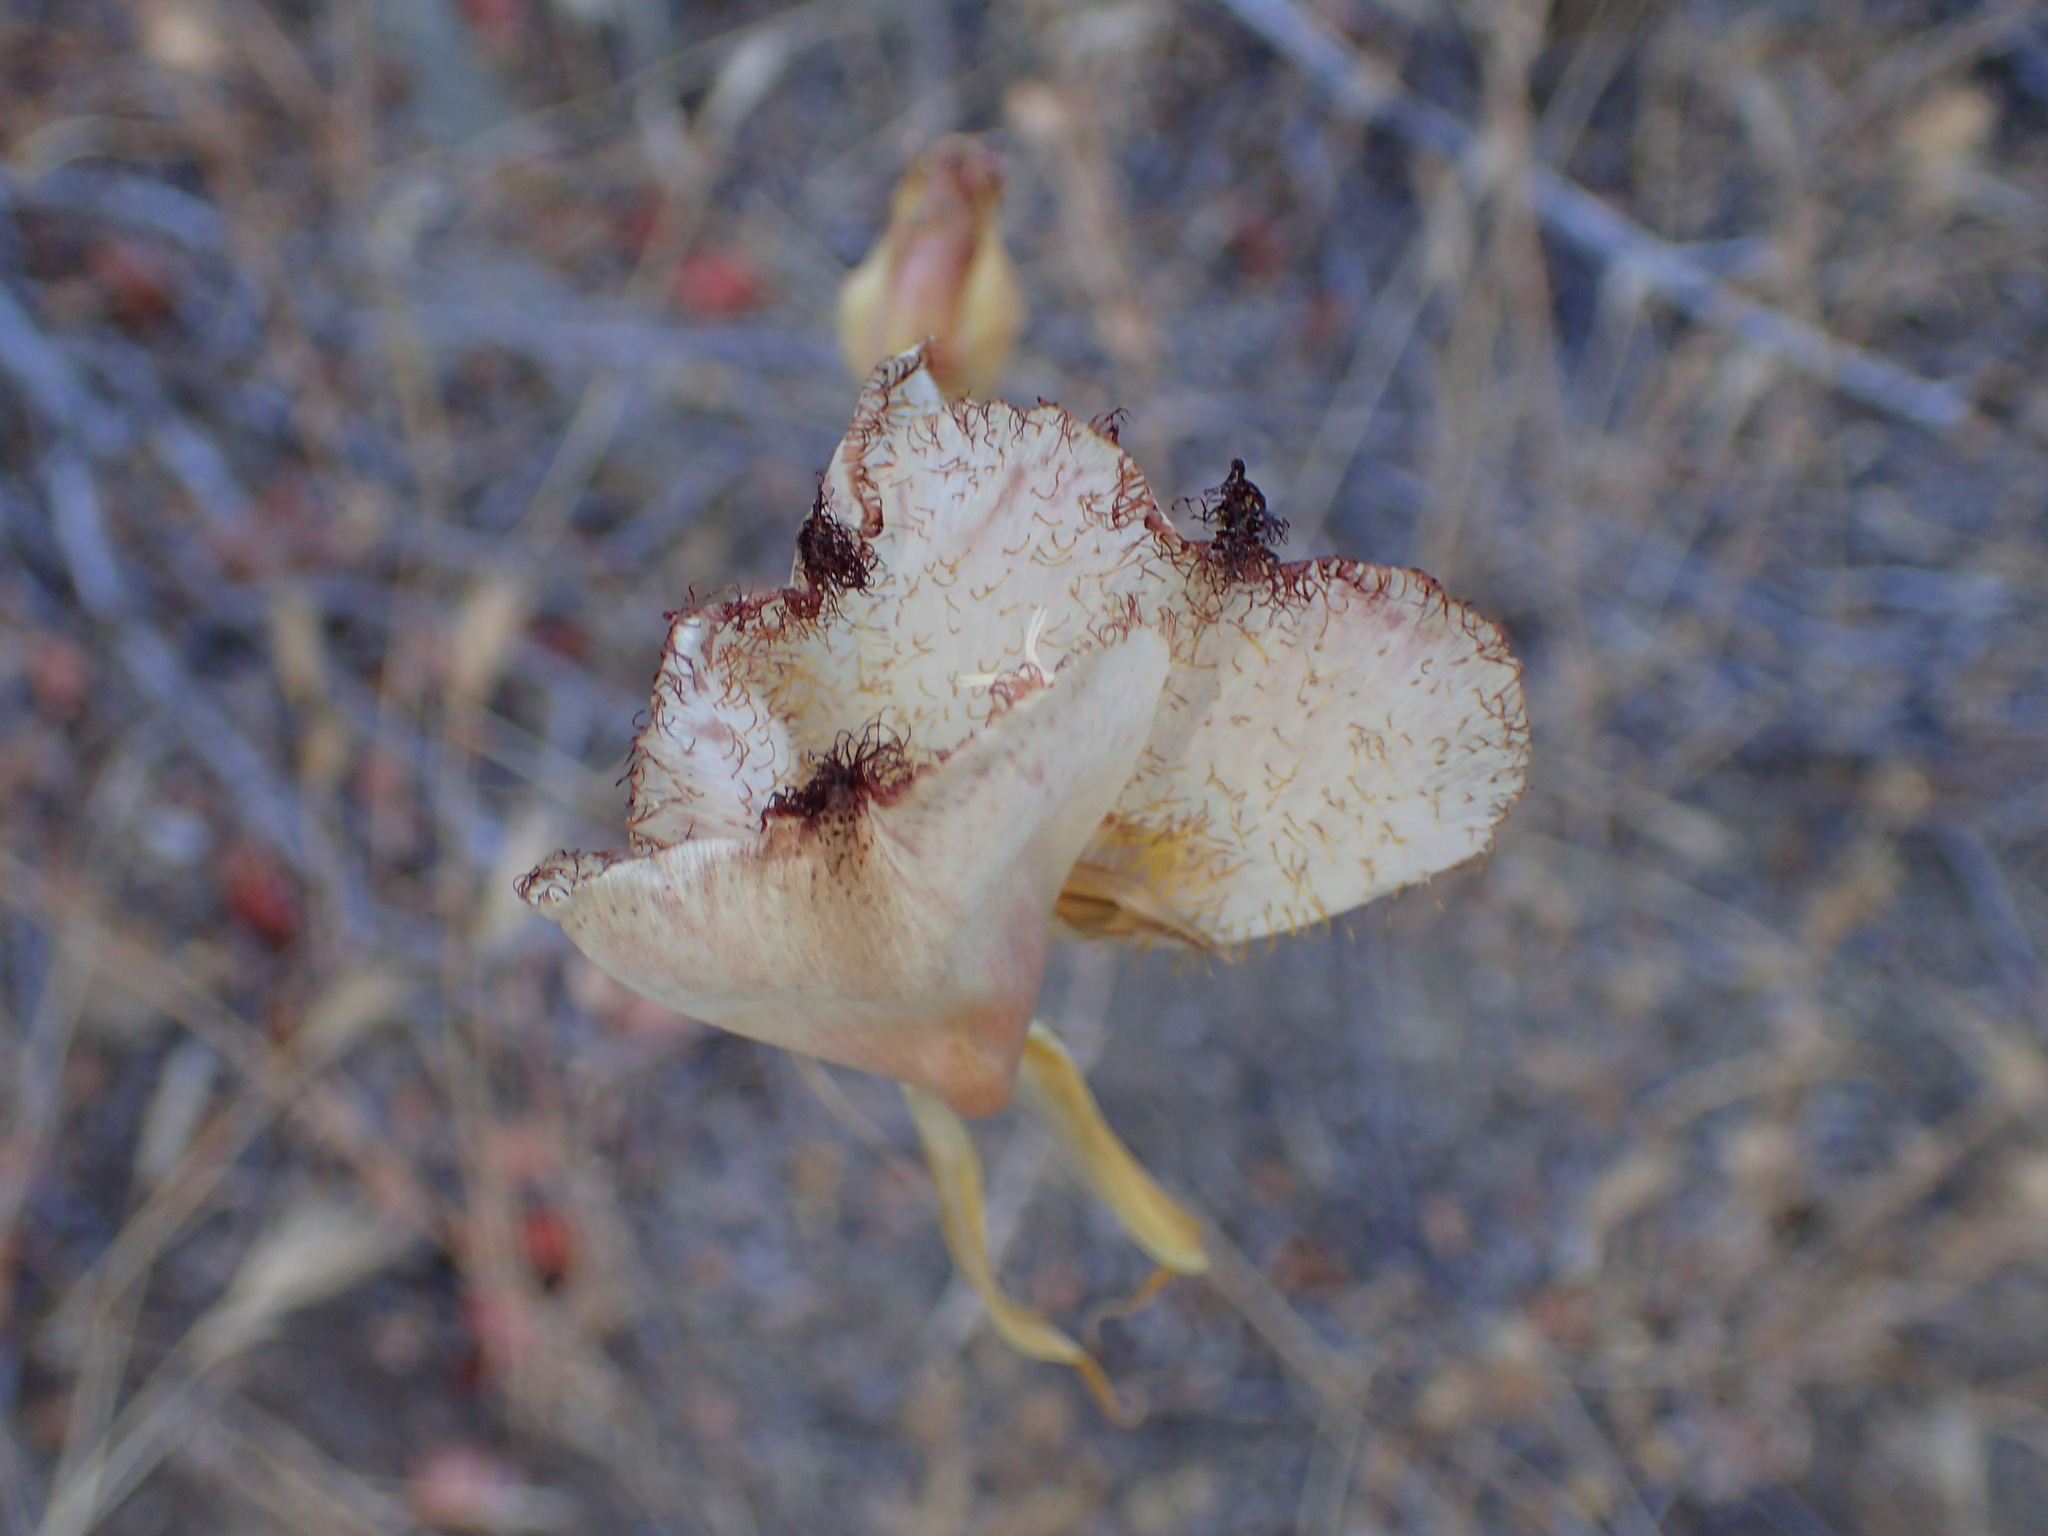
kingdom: Plantae
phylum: Tracheophyta
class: Liliopsida
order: Liliales
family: Liliaceae
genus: Calochortus
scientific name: Calochortus fimbriatus
